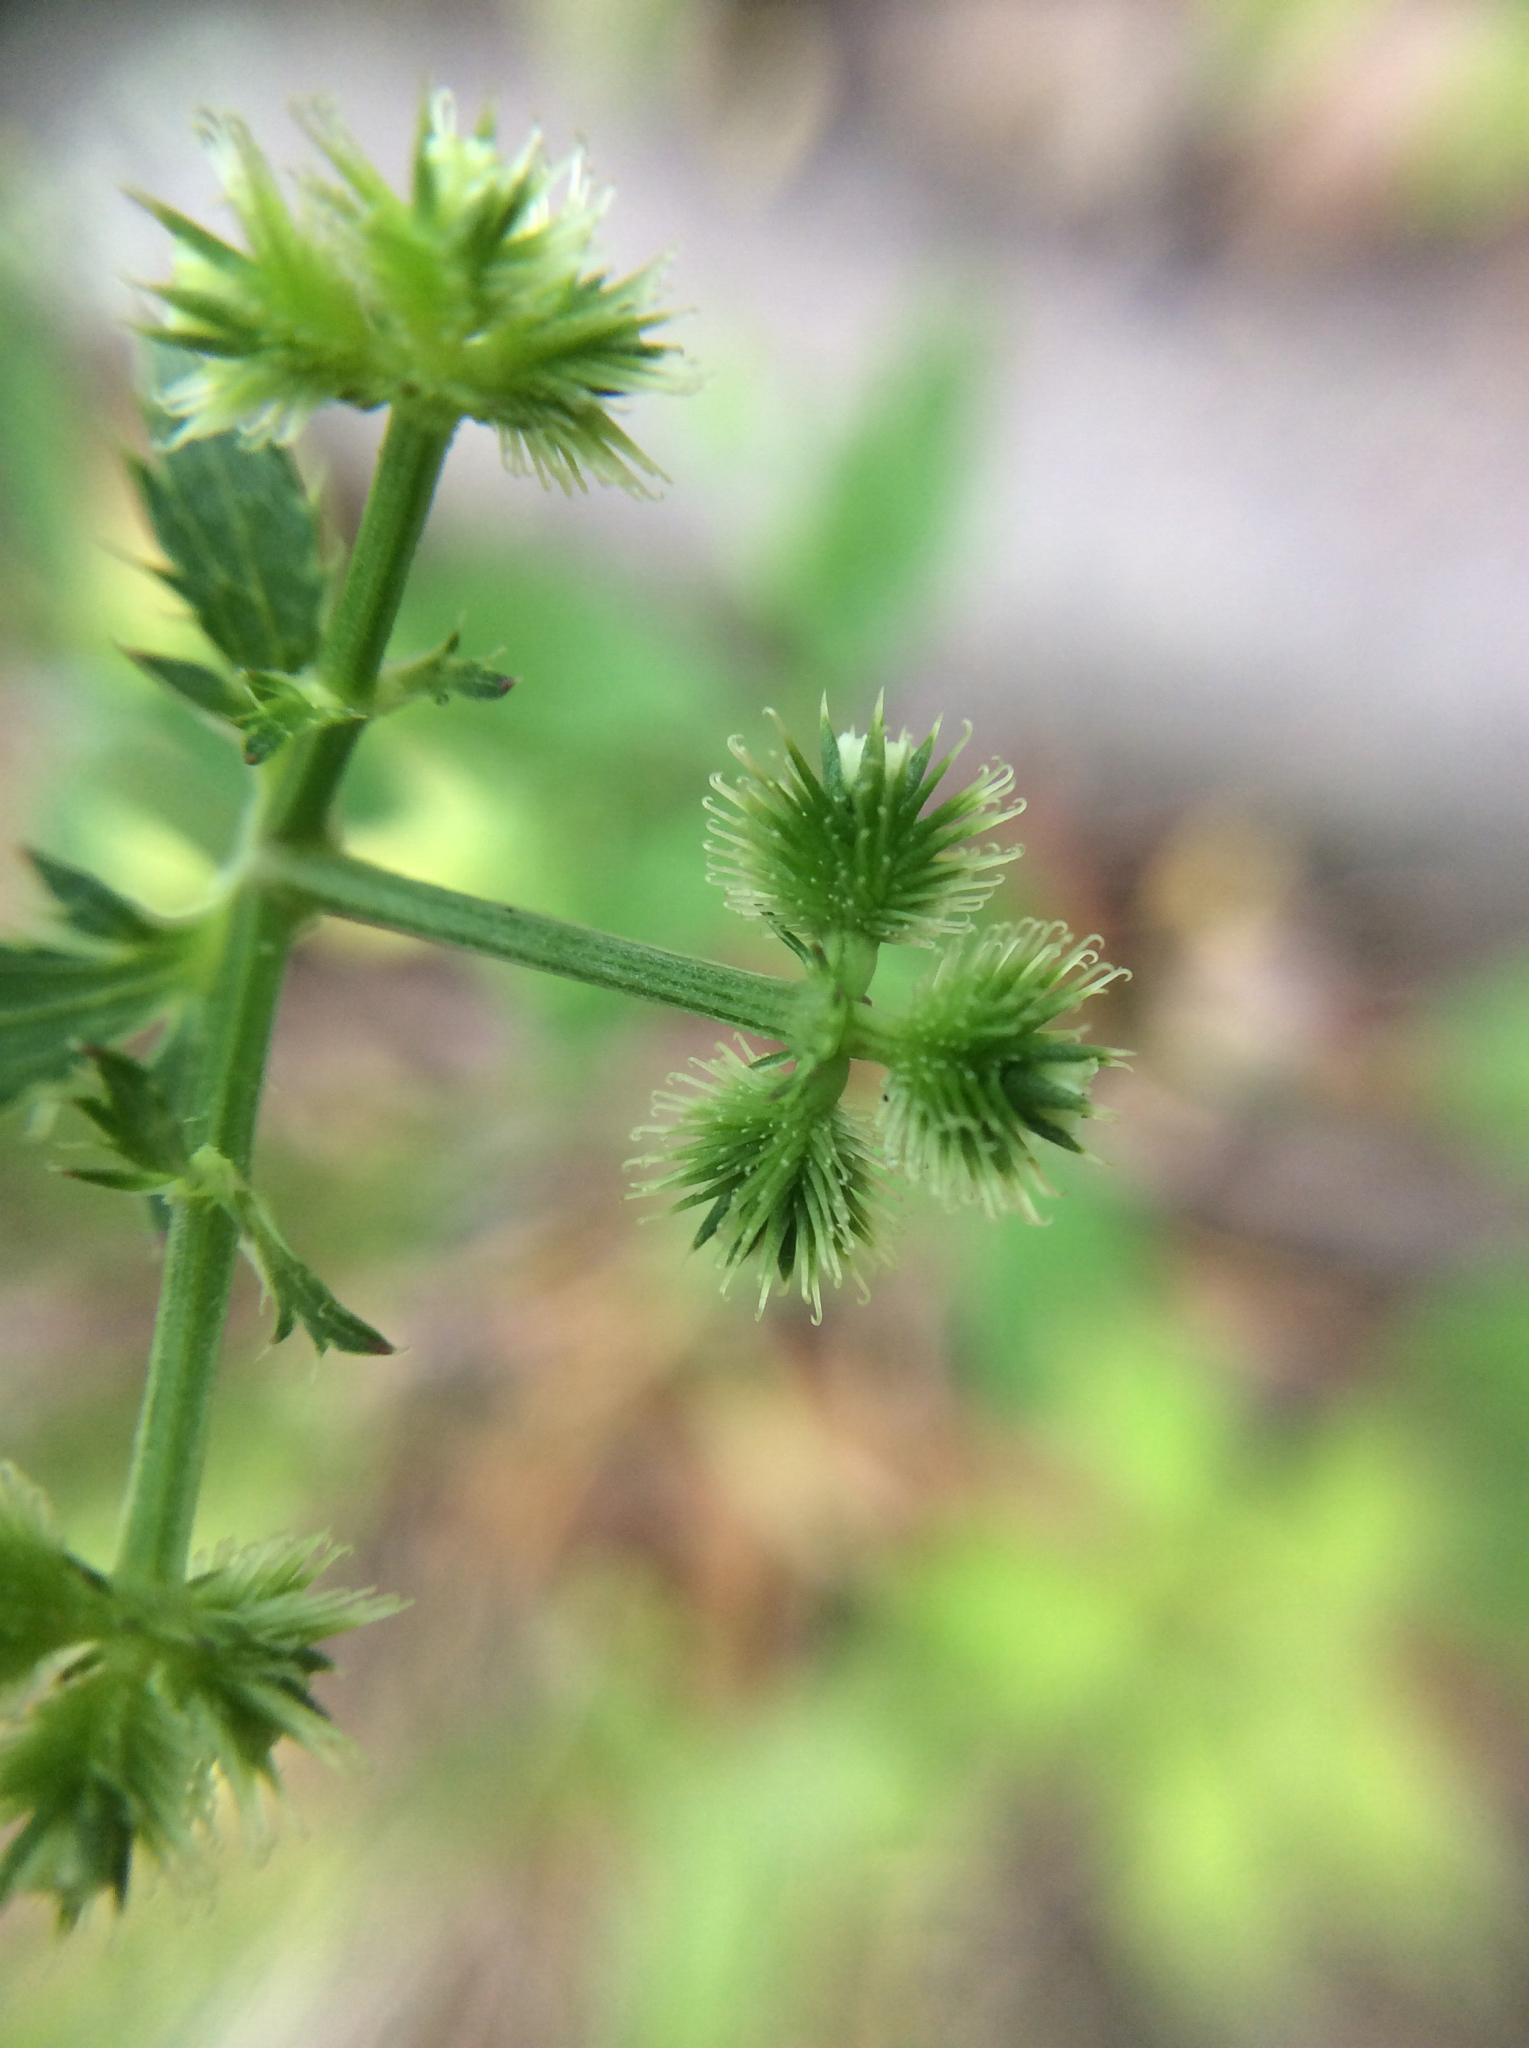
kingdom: Plantae
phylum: Tracheophyta
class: Magnoliopsida
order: Apiales
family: Apiaceae
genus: Sanicula
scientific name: Sanicula canadensis
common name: Canada sanicle
